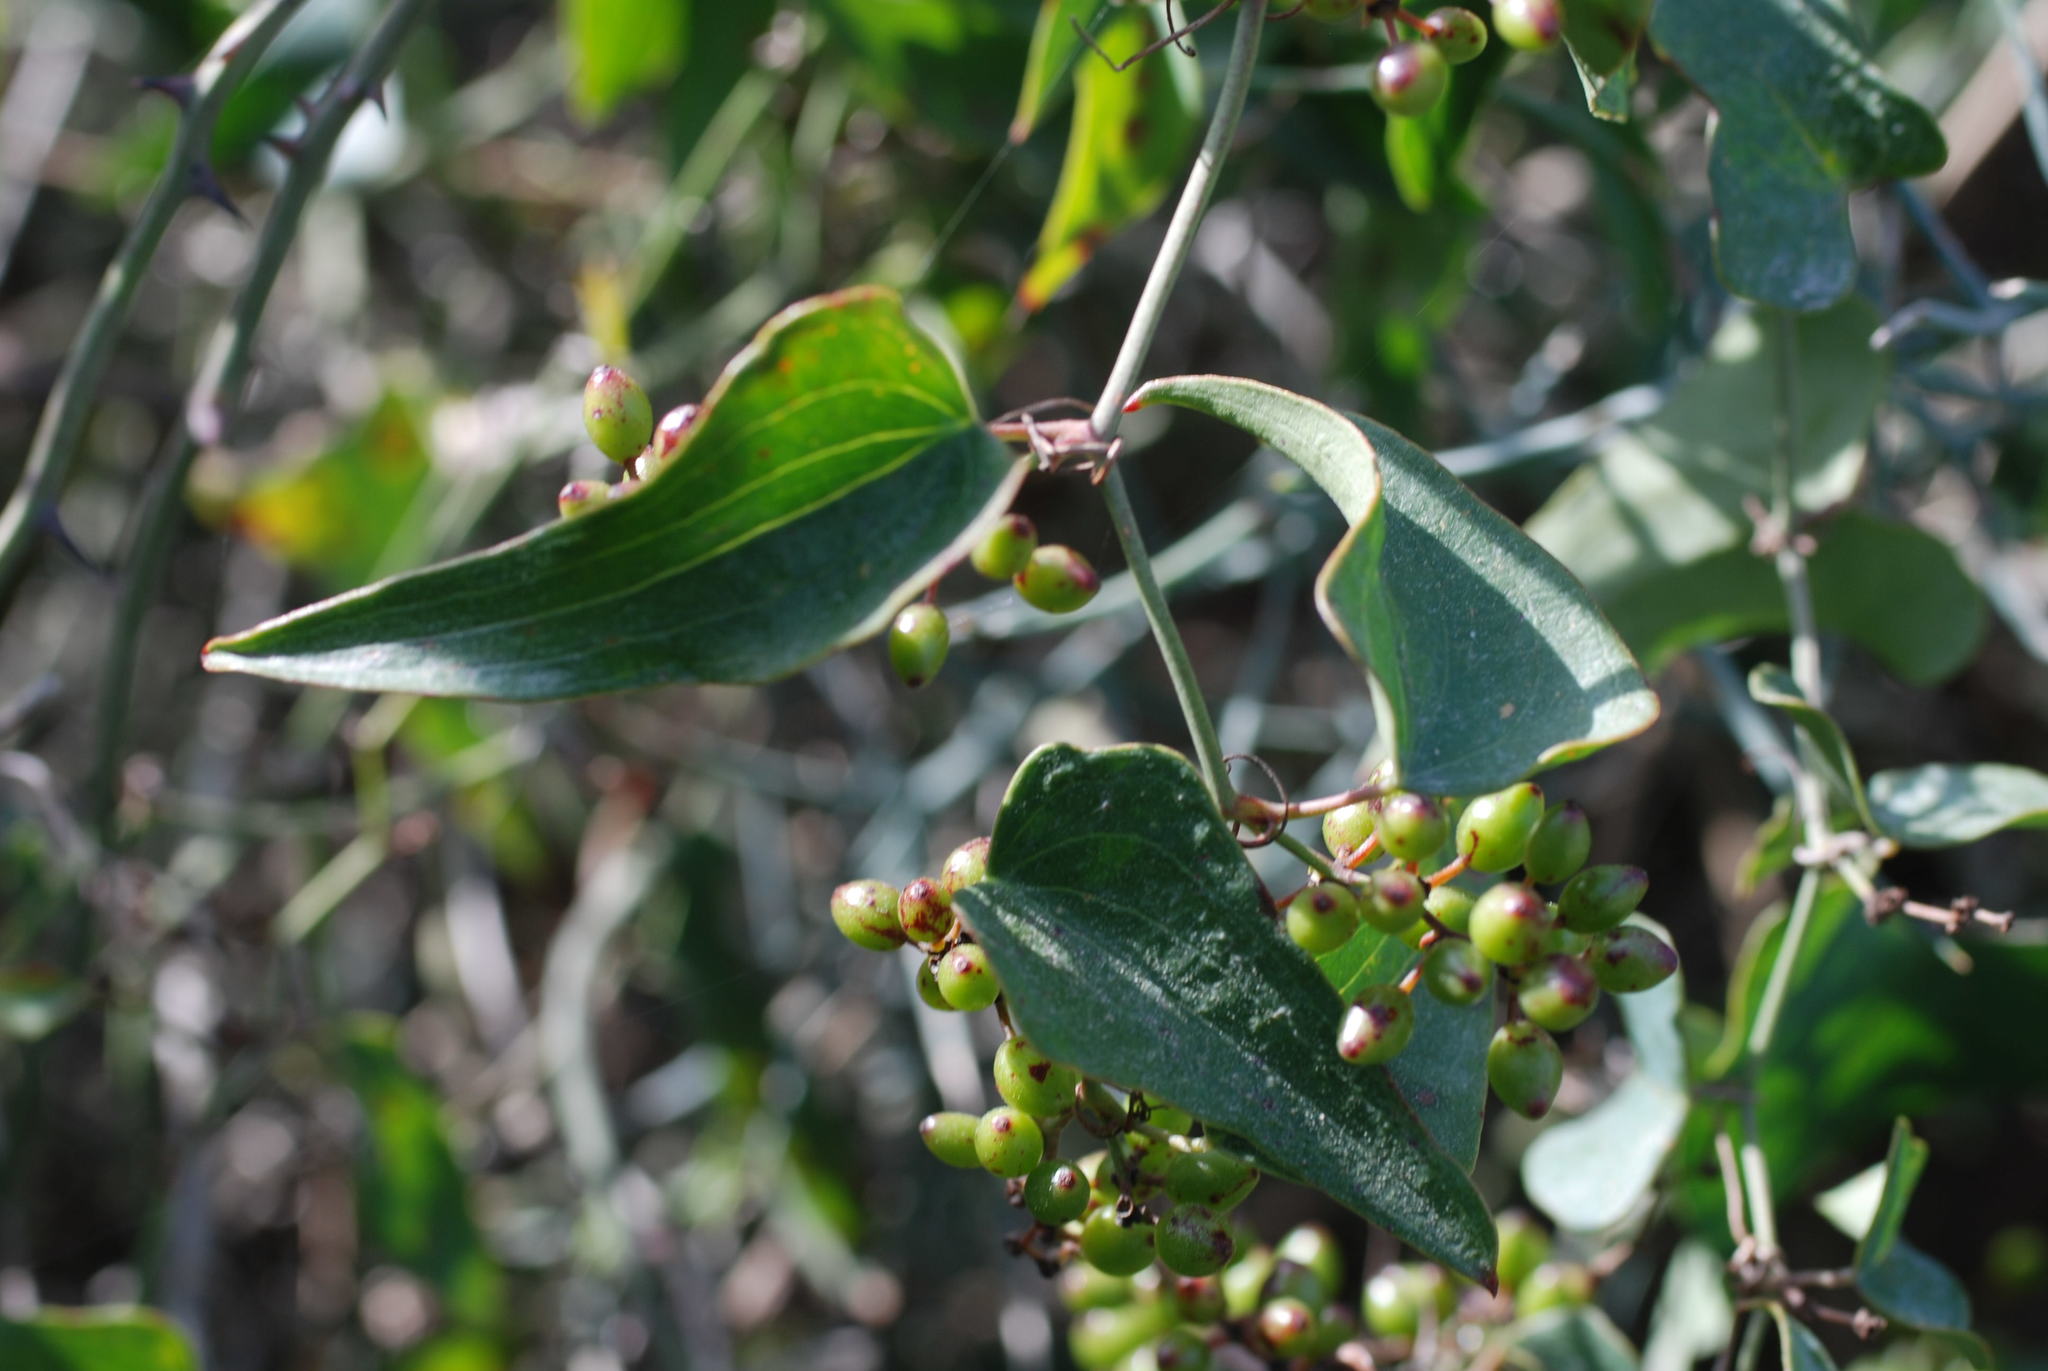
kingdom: Plantae
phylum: Tracheophyta
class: Liliopsida
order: Liliales
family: Smilacaceae
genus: Smilax
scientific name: Smilax aspera
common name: Common smilax
